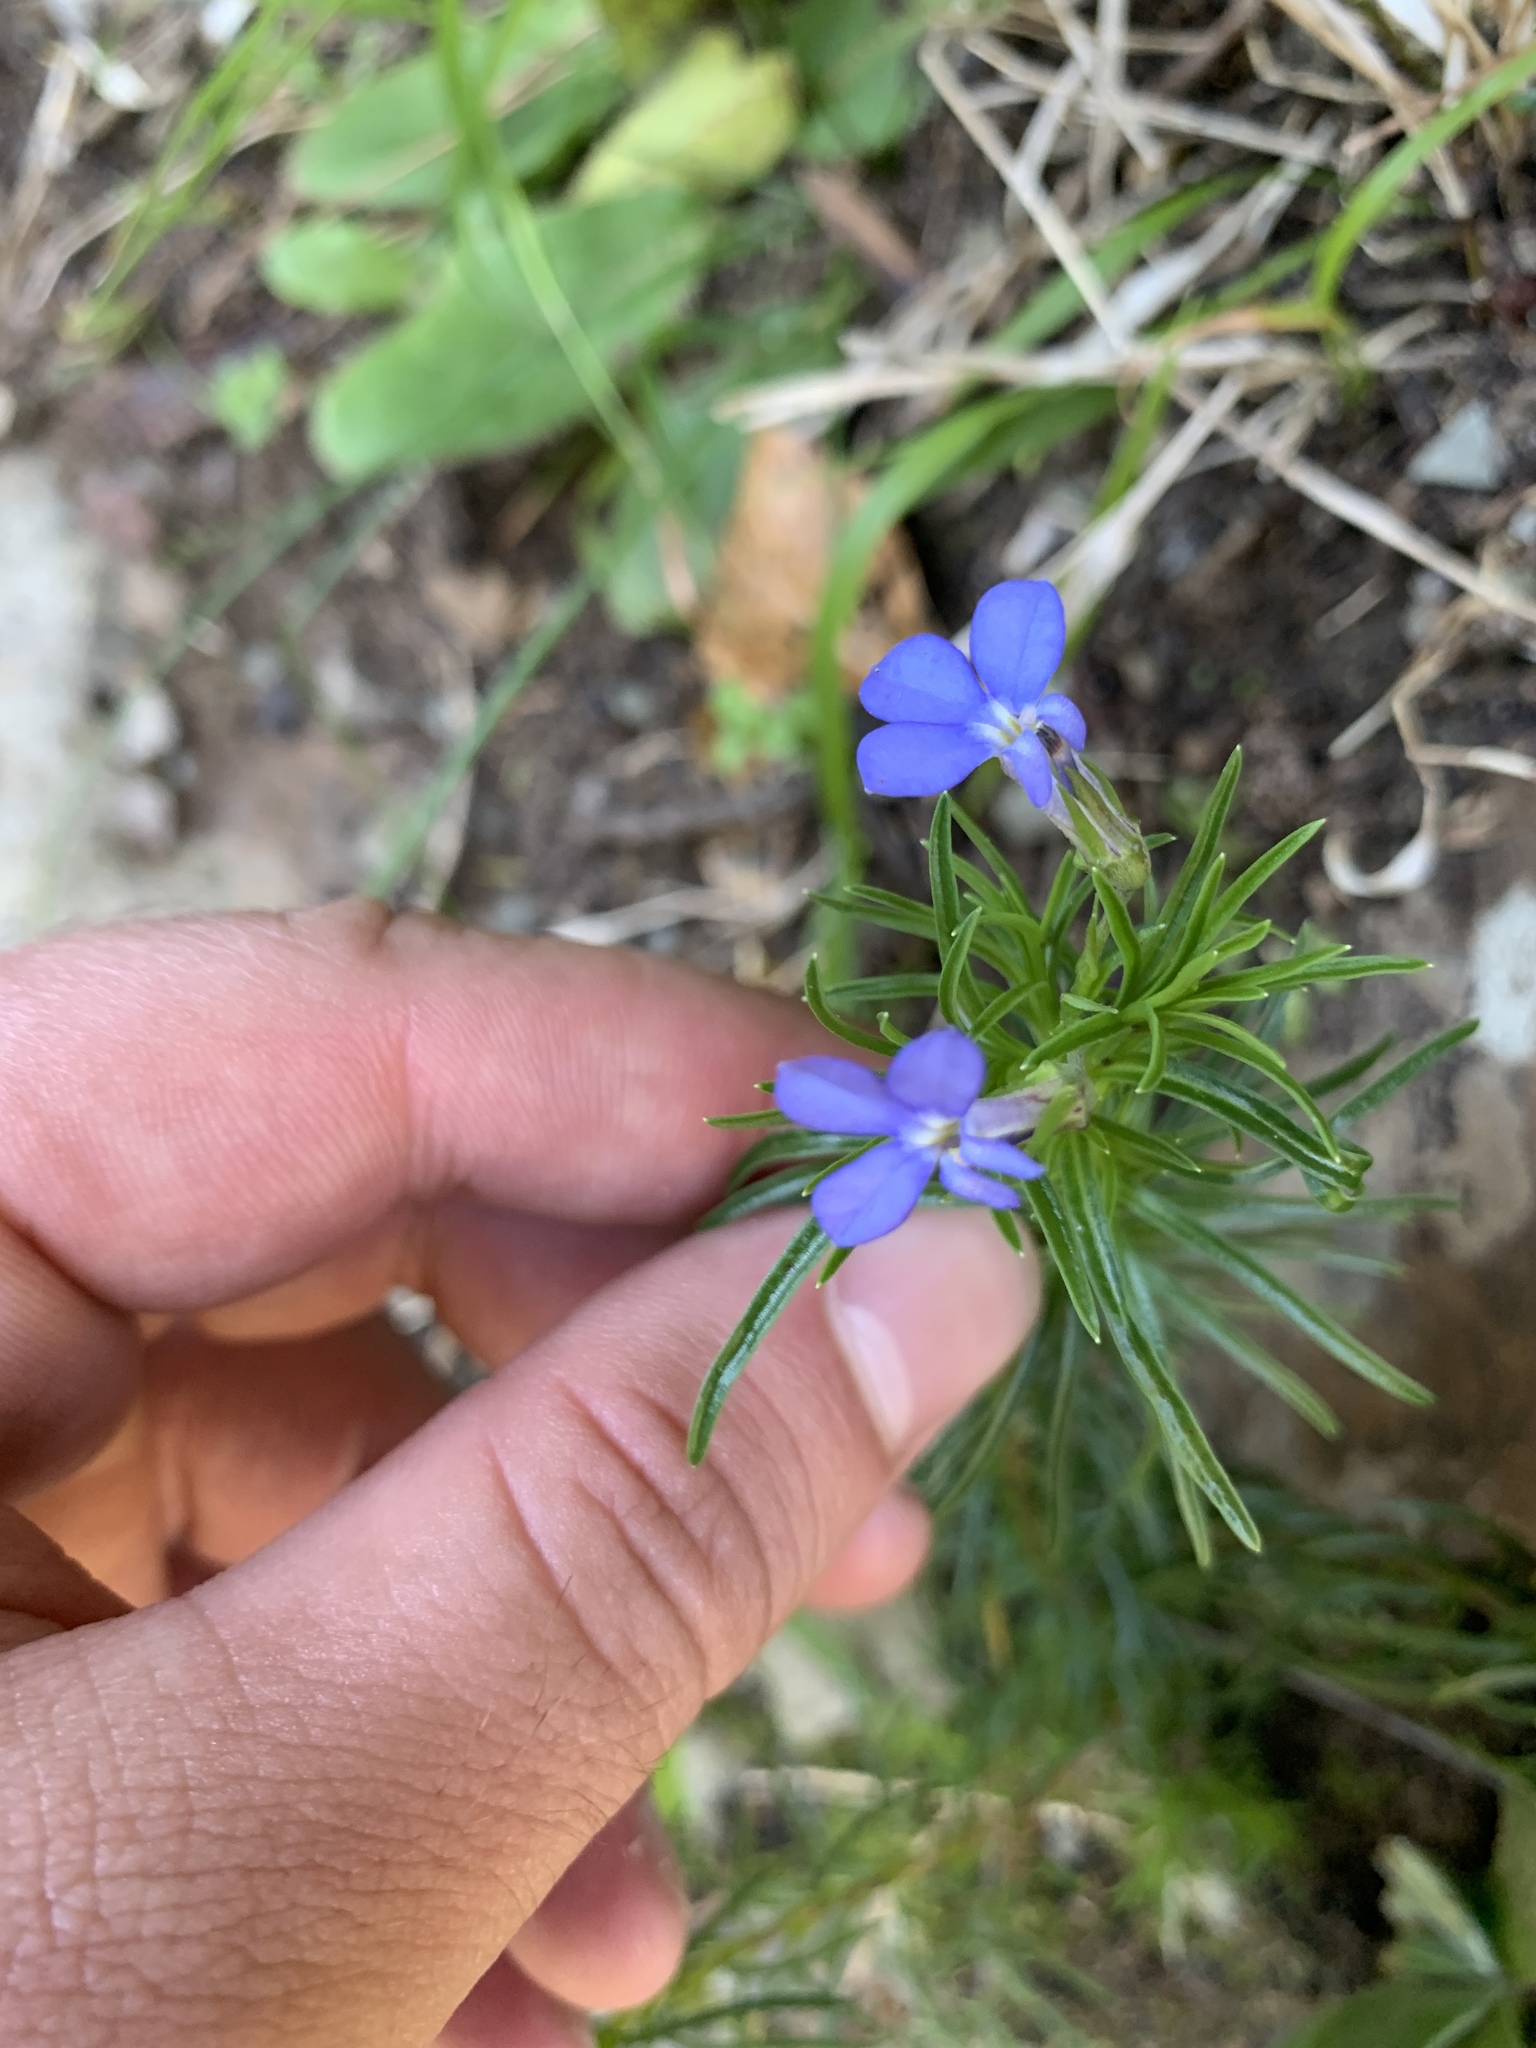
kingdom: Plantae
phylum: Tracheophyta
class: Magnoliopsida
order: Asterales
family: Campanulaceae
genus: Lobelia
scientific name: Lobelia pinifolia
